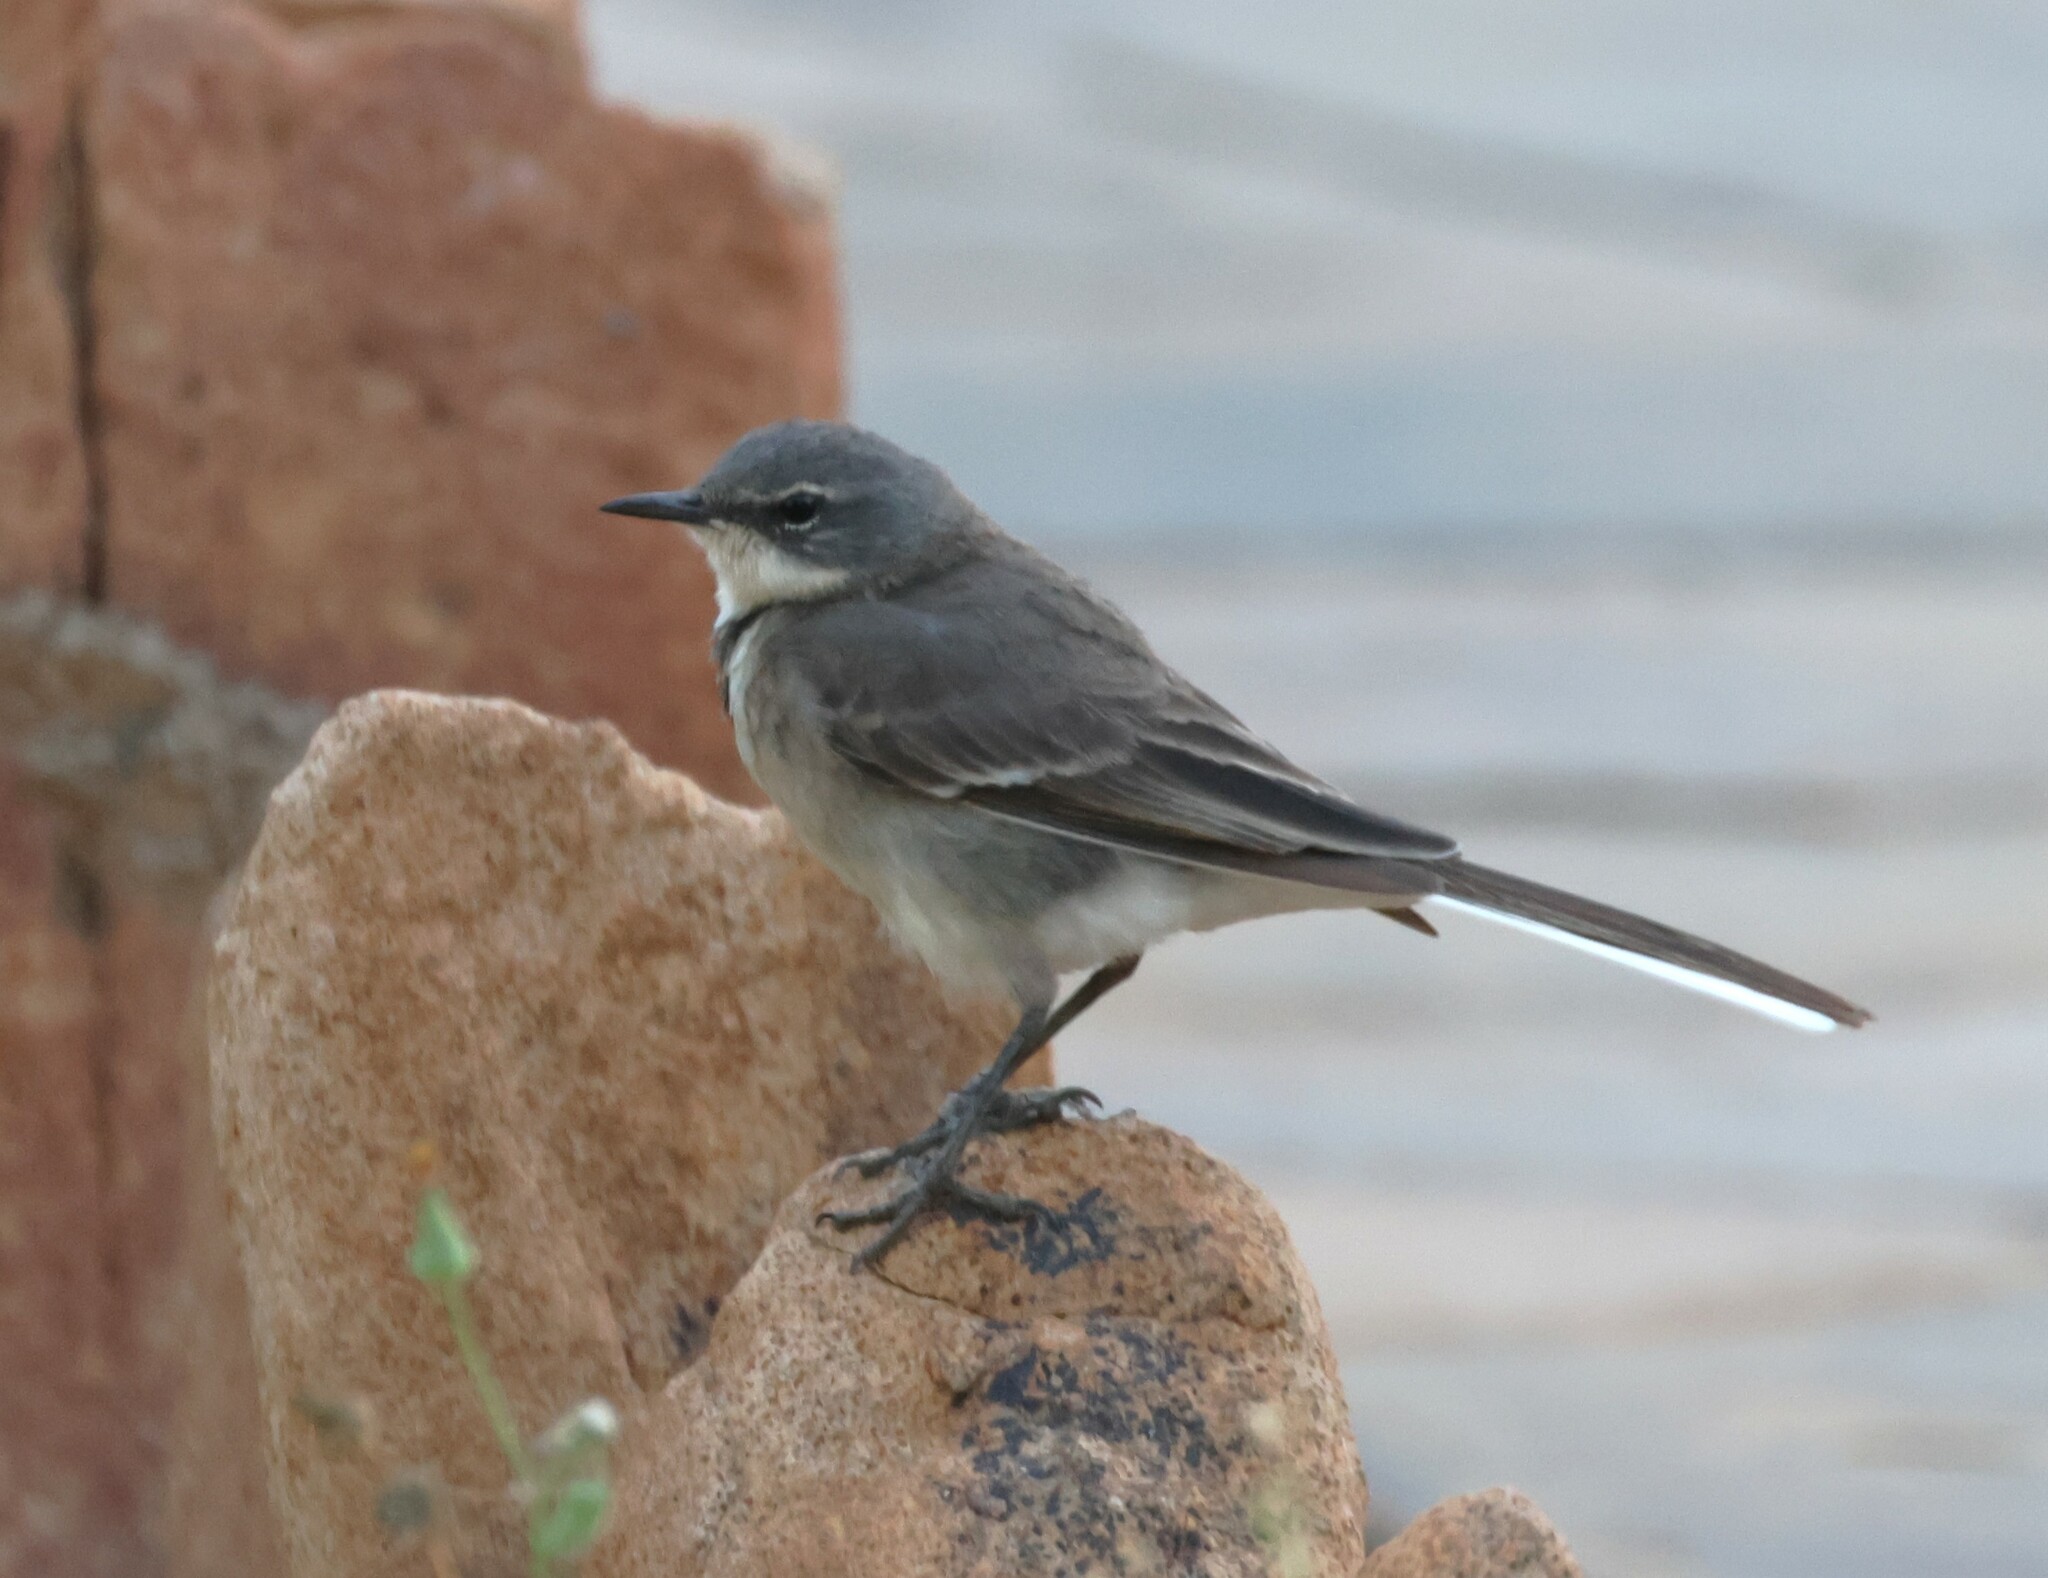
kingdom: Animalia
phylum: Chordata
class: Aves
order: Passeriformes
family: Motacillidae
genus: Motacilla
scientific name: Motacilla capensis
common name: Cape wagtail
